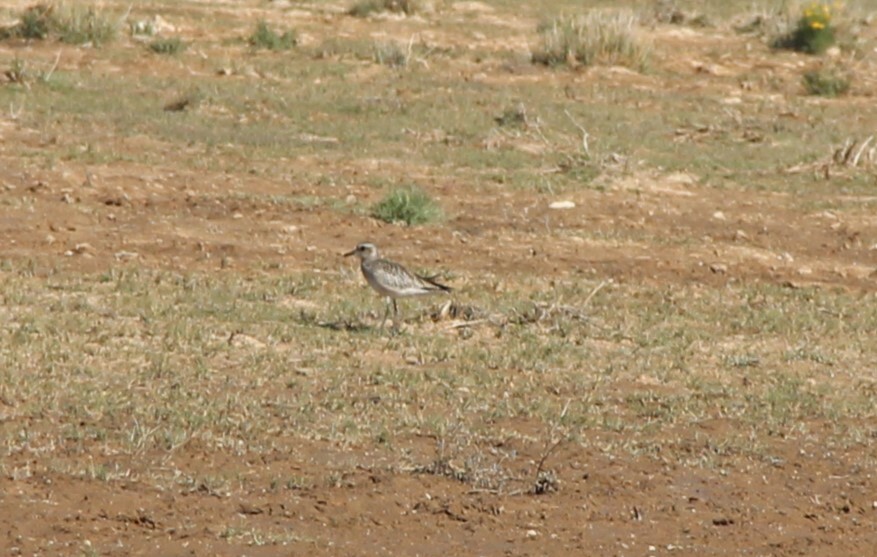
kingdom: Animalia
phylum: Chordata
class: Aves
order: Charadriiformes
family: Charadriidae
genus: Pluvialis
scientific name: Pluvialis dominica
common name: American golden plover
